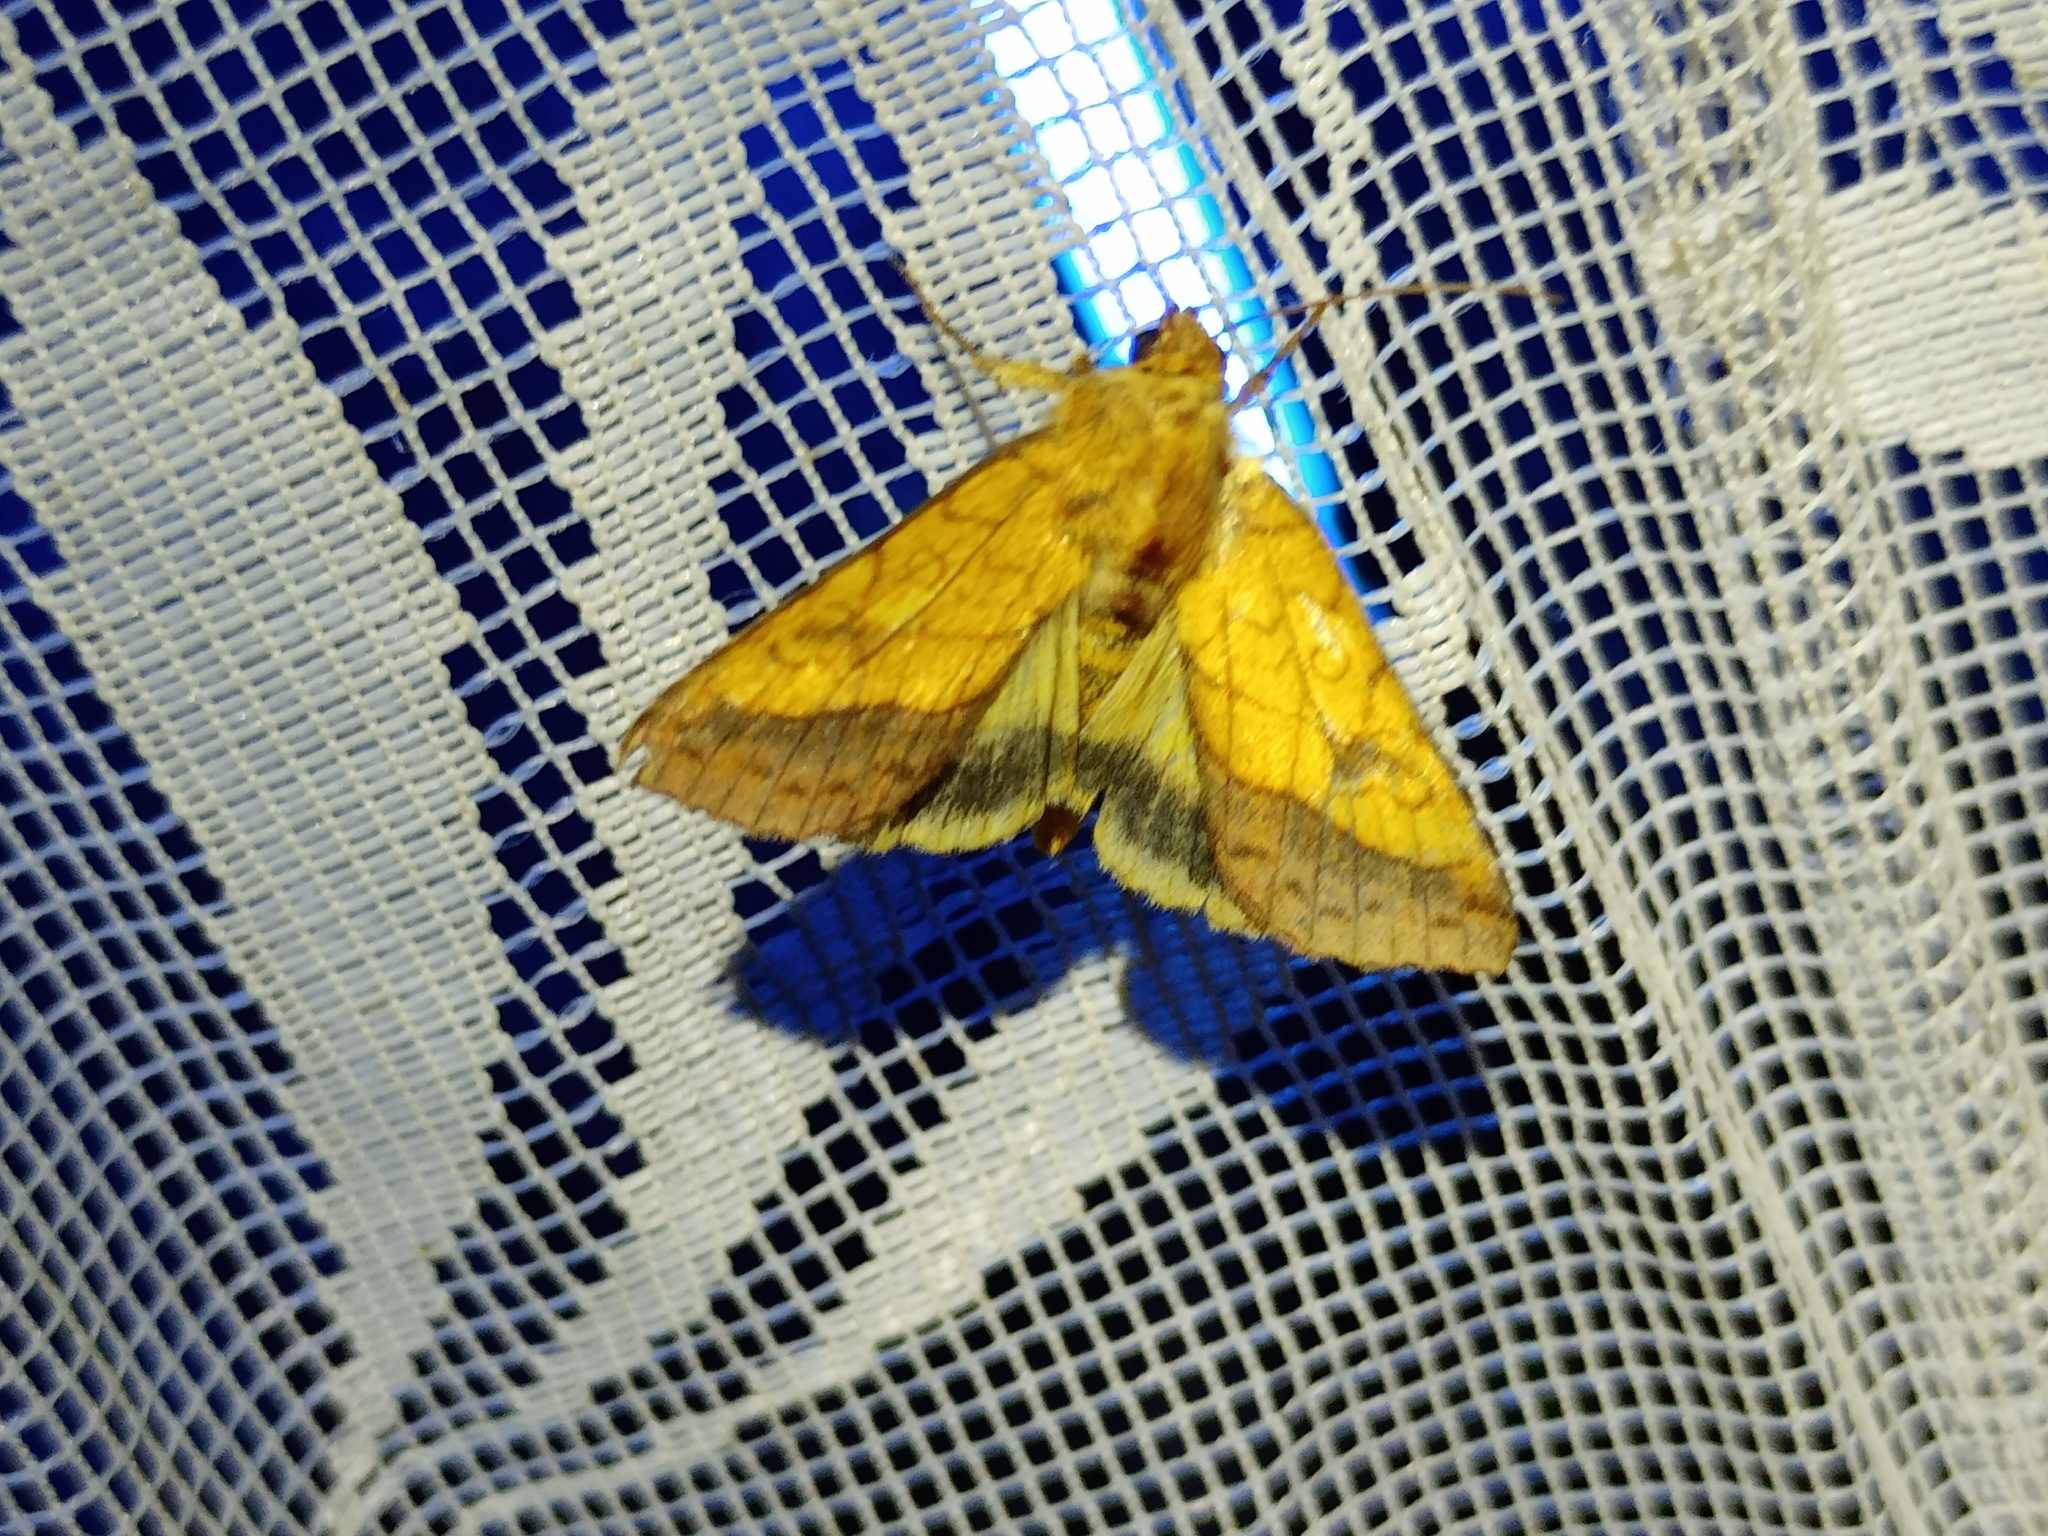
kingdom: Animalia
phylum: Arthropoda
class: Insecta
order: Lepidoptera
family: Noctuidae
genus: Pyrrhia
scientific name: Pyrrhia umbra
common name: Bordered sallow
